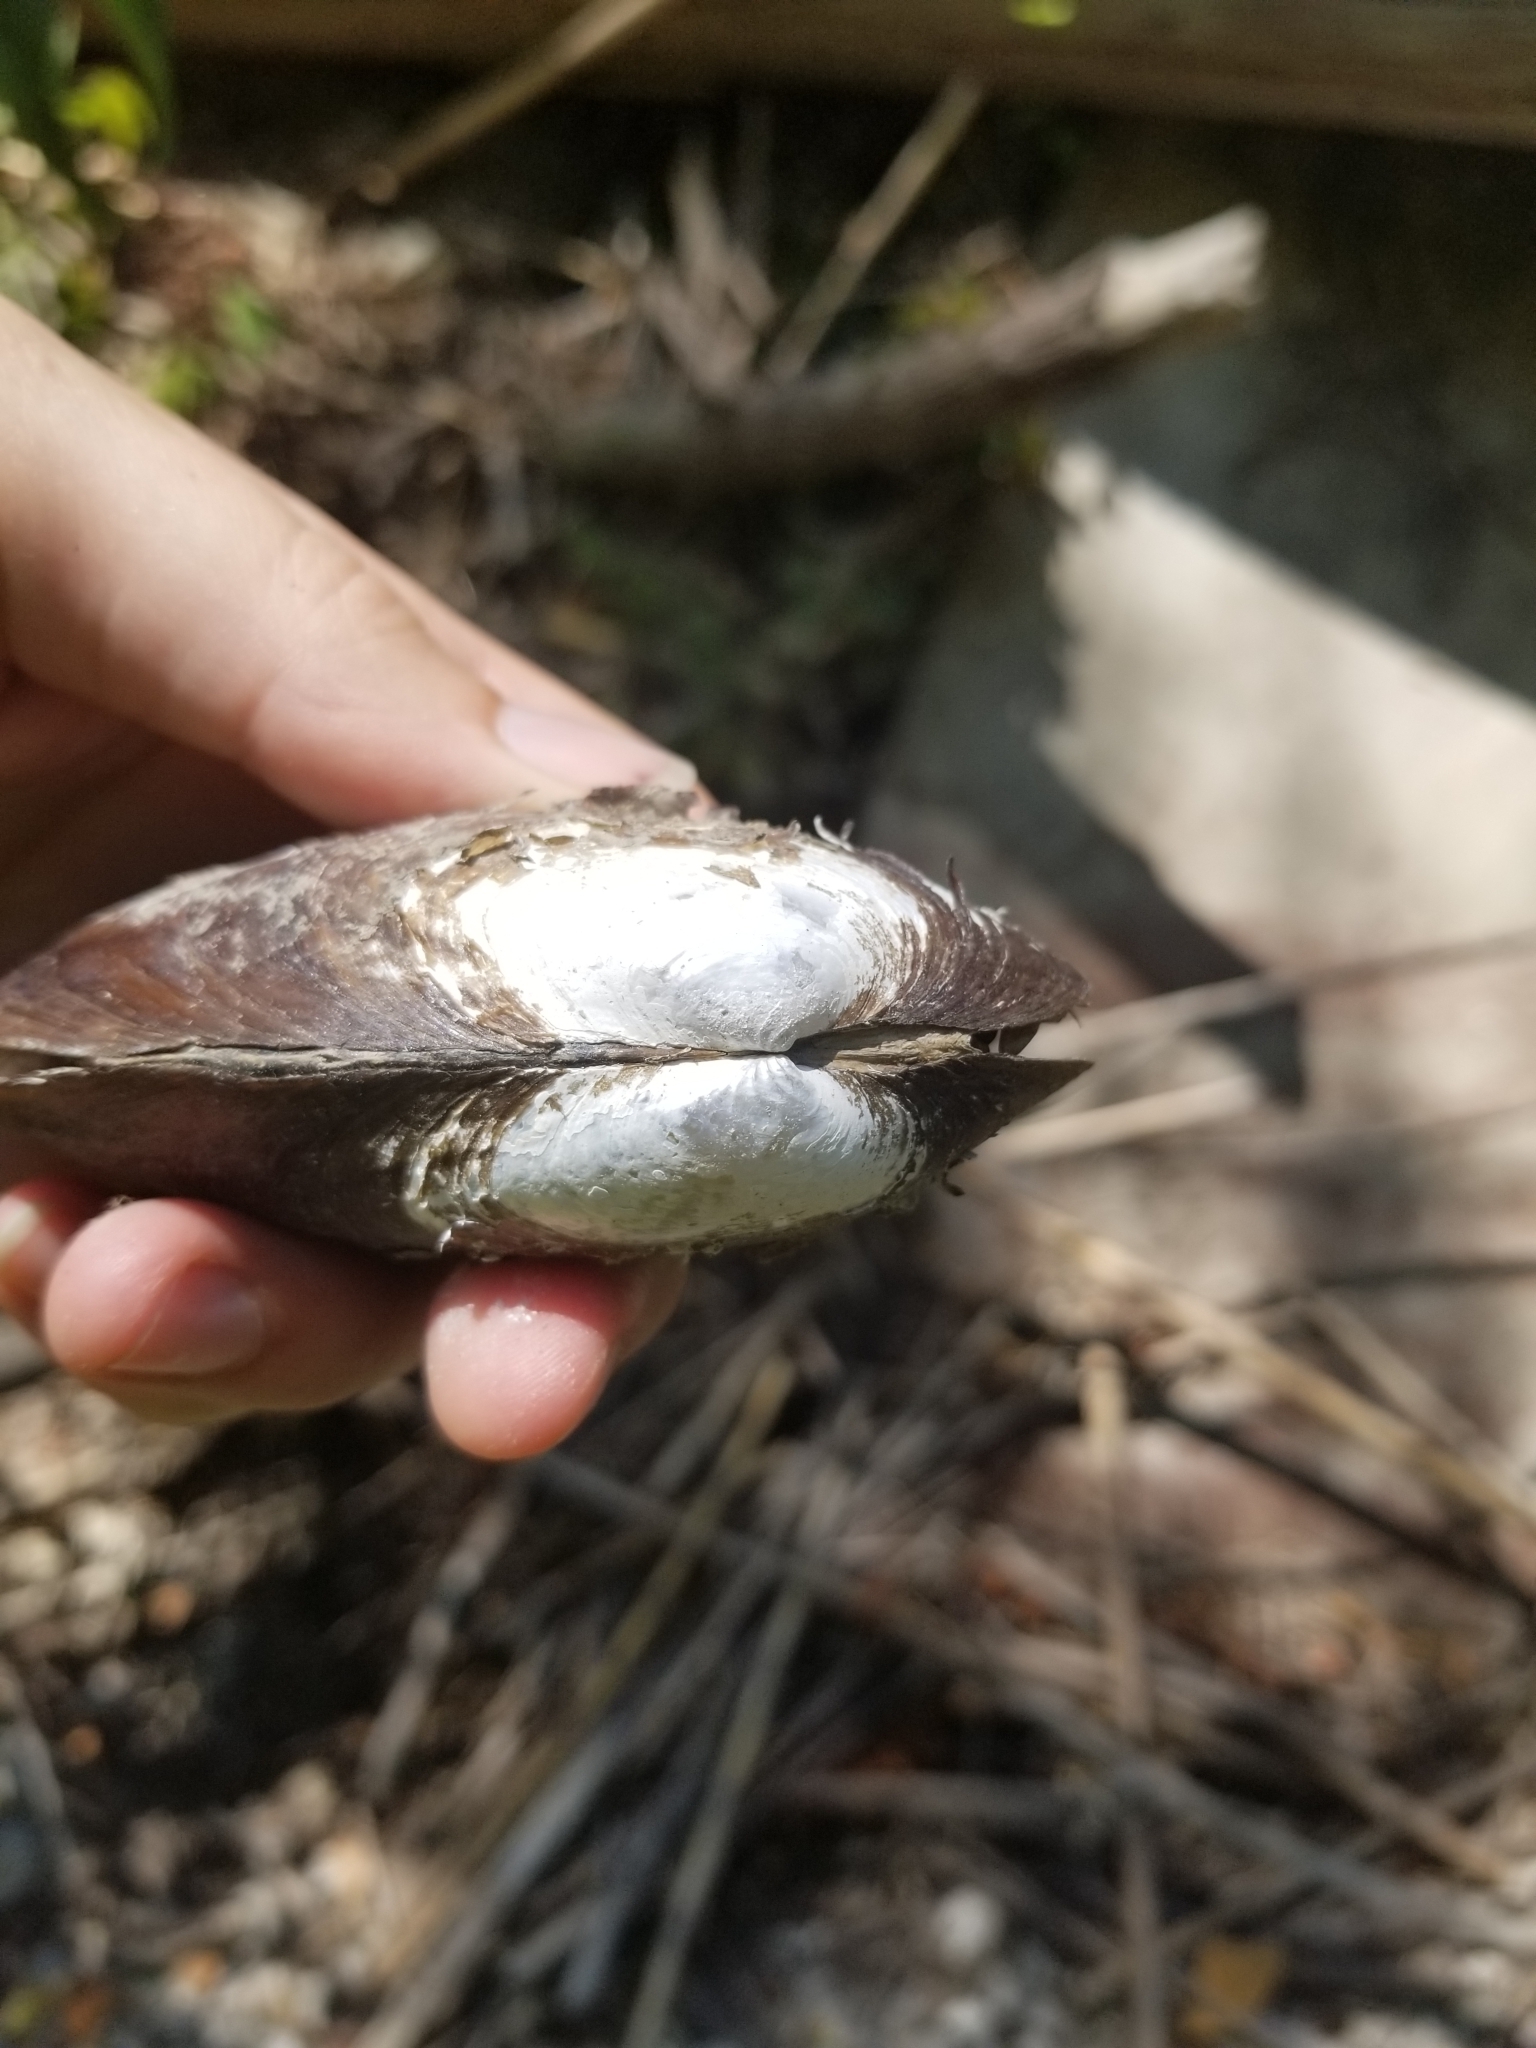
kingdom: Animalia
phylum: Mollusca
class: Bivalvia
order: Unionida
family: Unionidae
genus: Uniomerus
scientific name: Uniomerus tetralasmus
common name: Pondhorn
